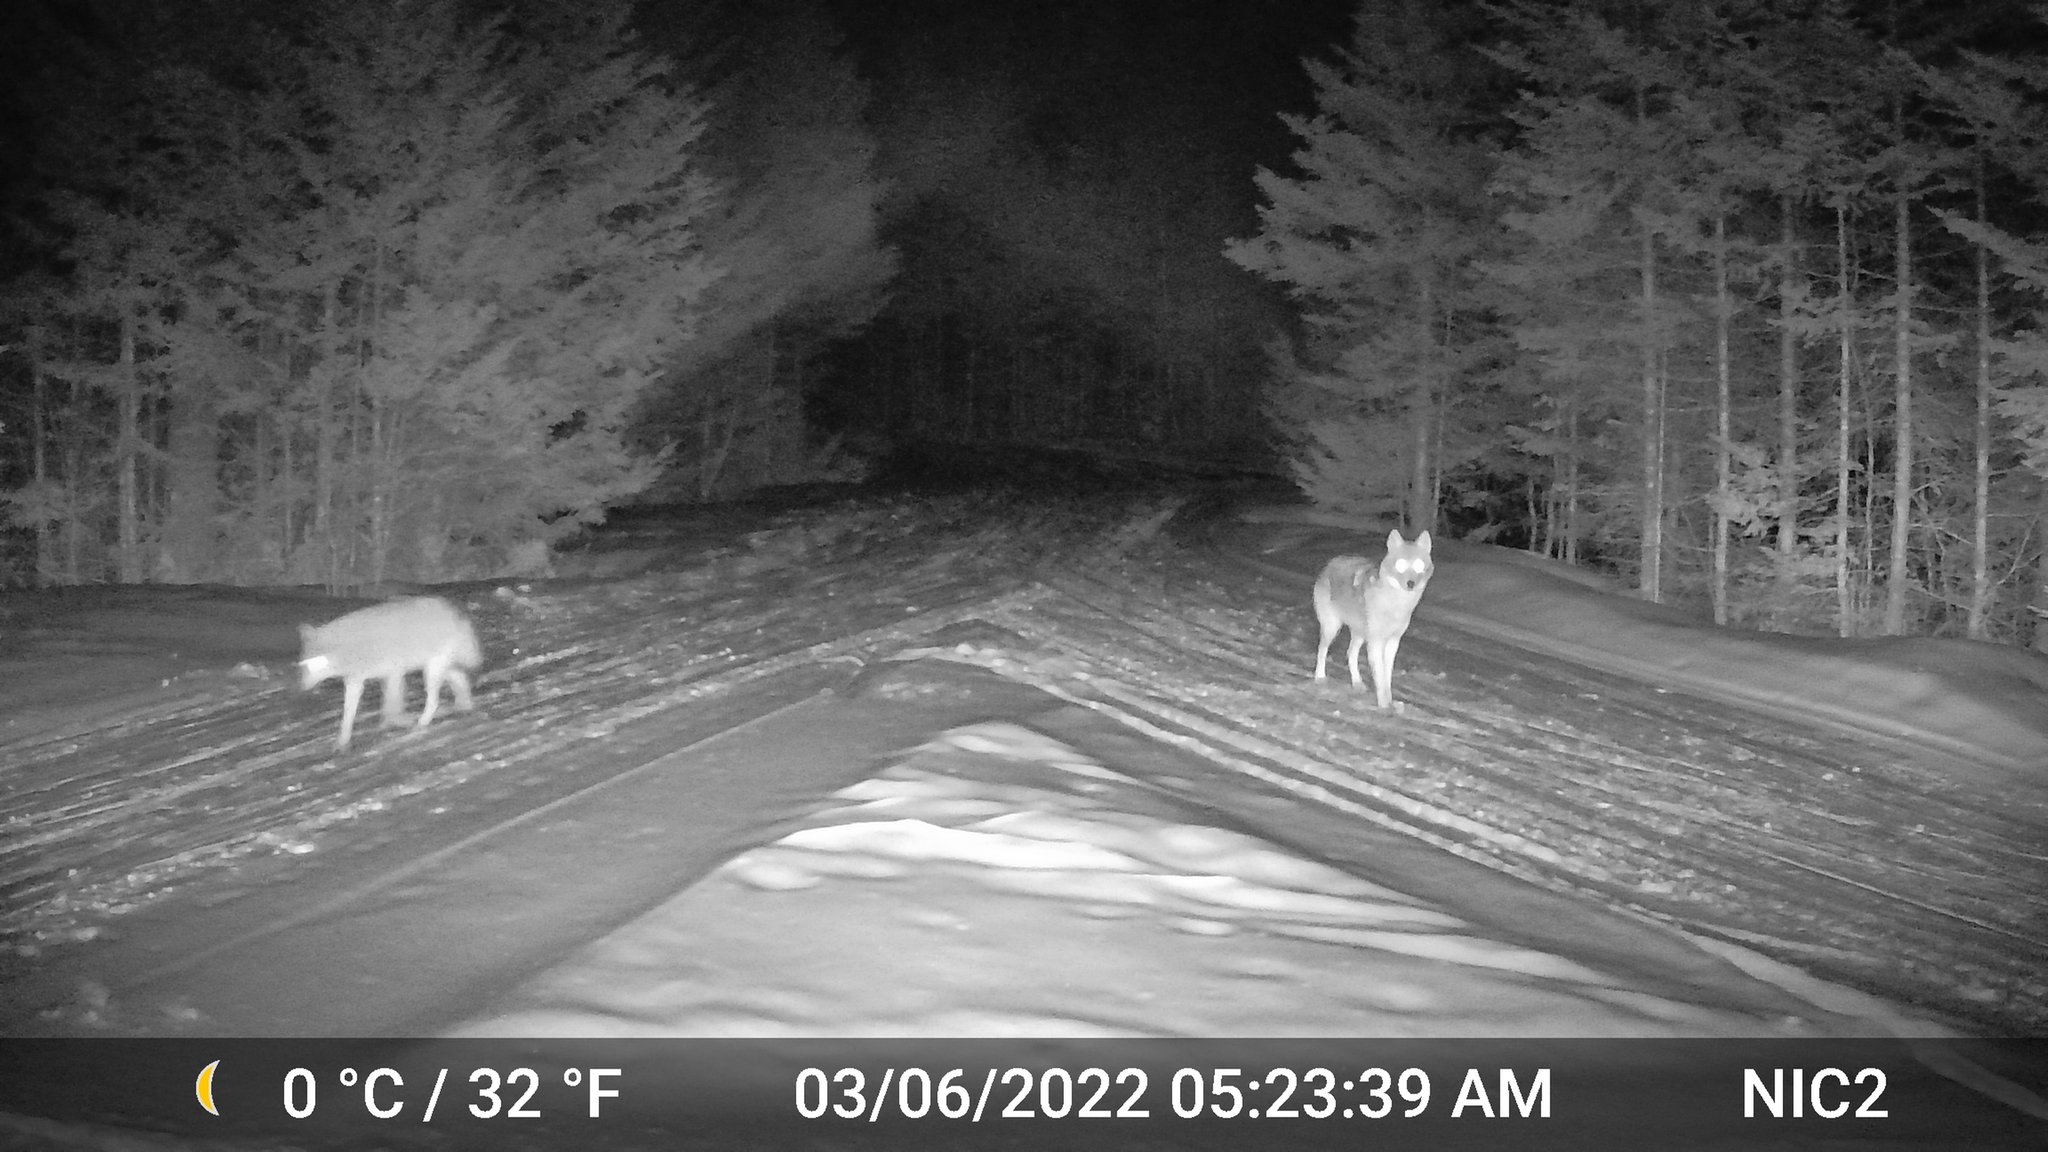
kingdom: Animalia
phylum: Chordata
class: Mammalia
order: Carnivora
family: Canidae
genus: Canis
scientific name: Canis latrans
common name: Coyote
